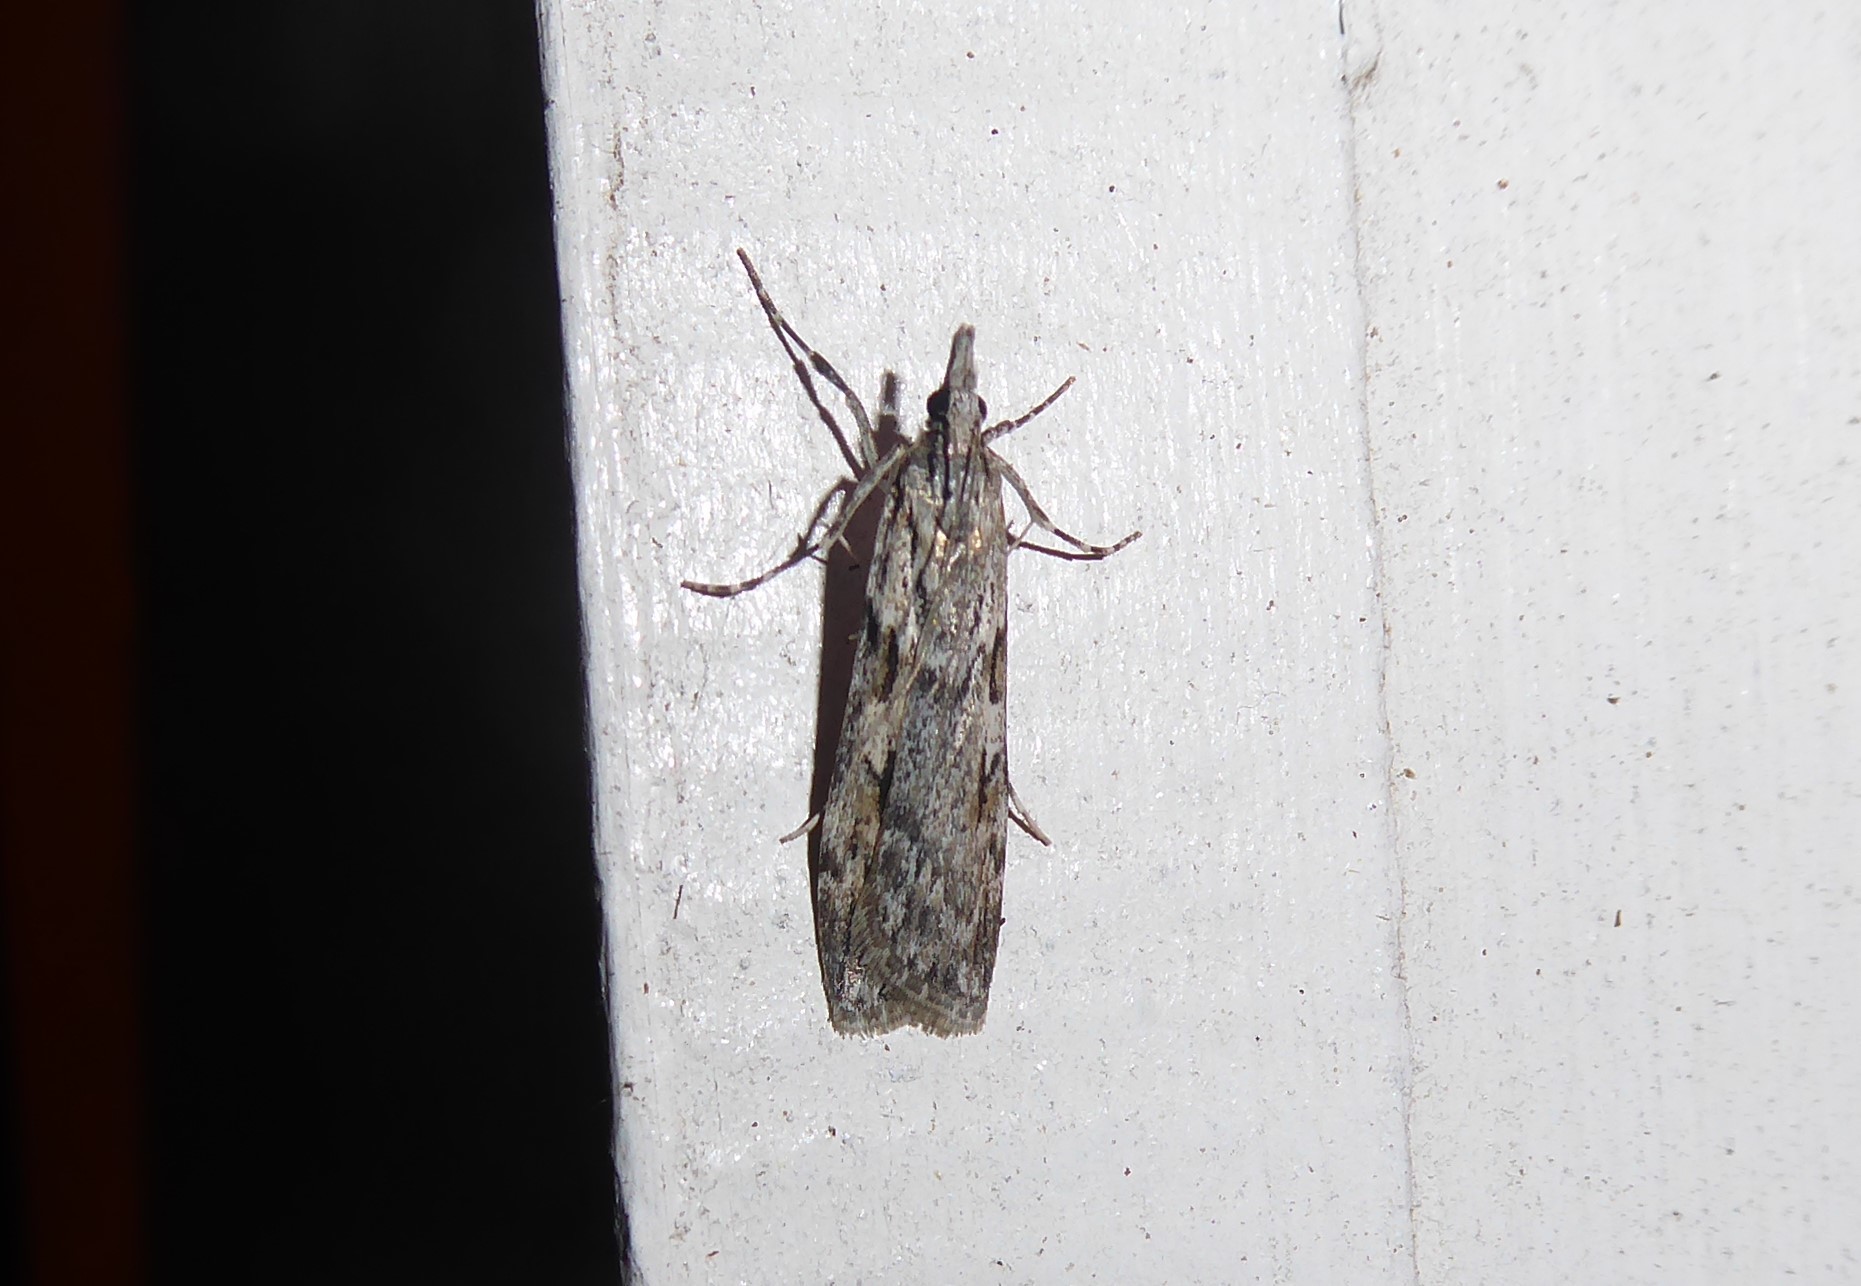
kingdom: Animalia
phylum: Arthropoda
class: Insecta
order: Lepidoptera
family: Crambidae
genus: Scoparia
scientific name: Scoparia halopis
